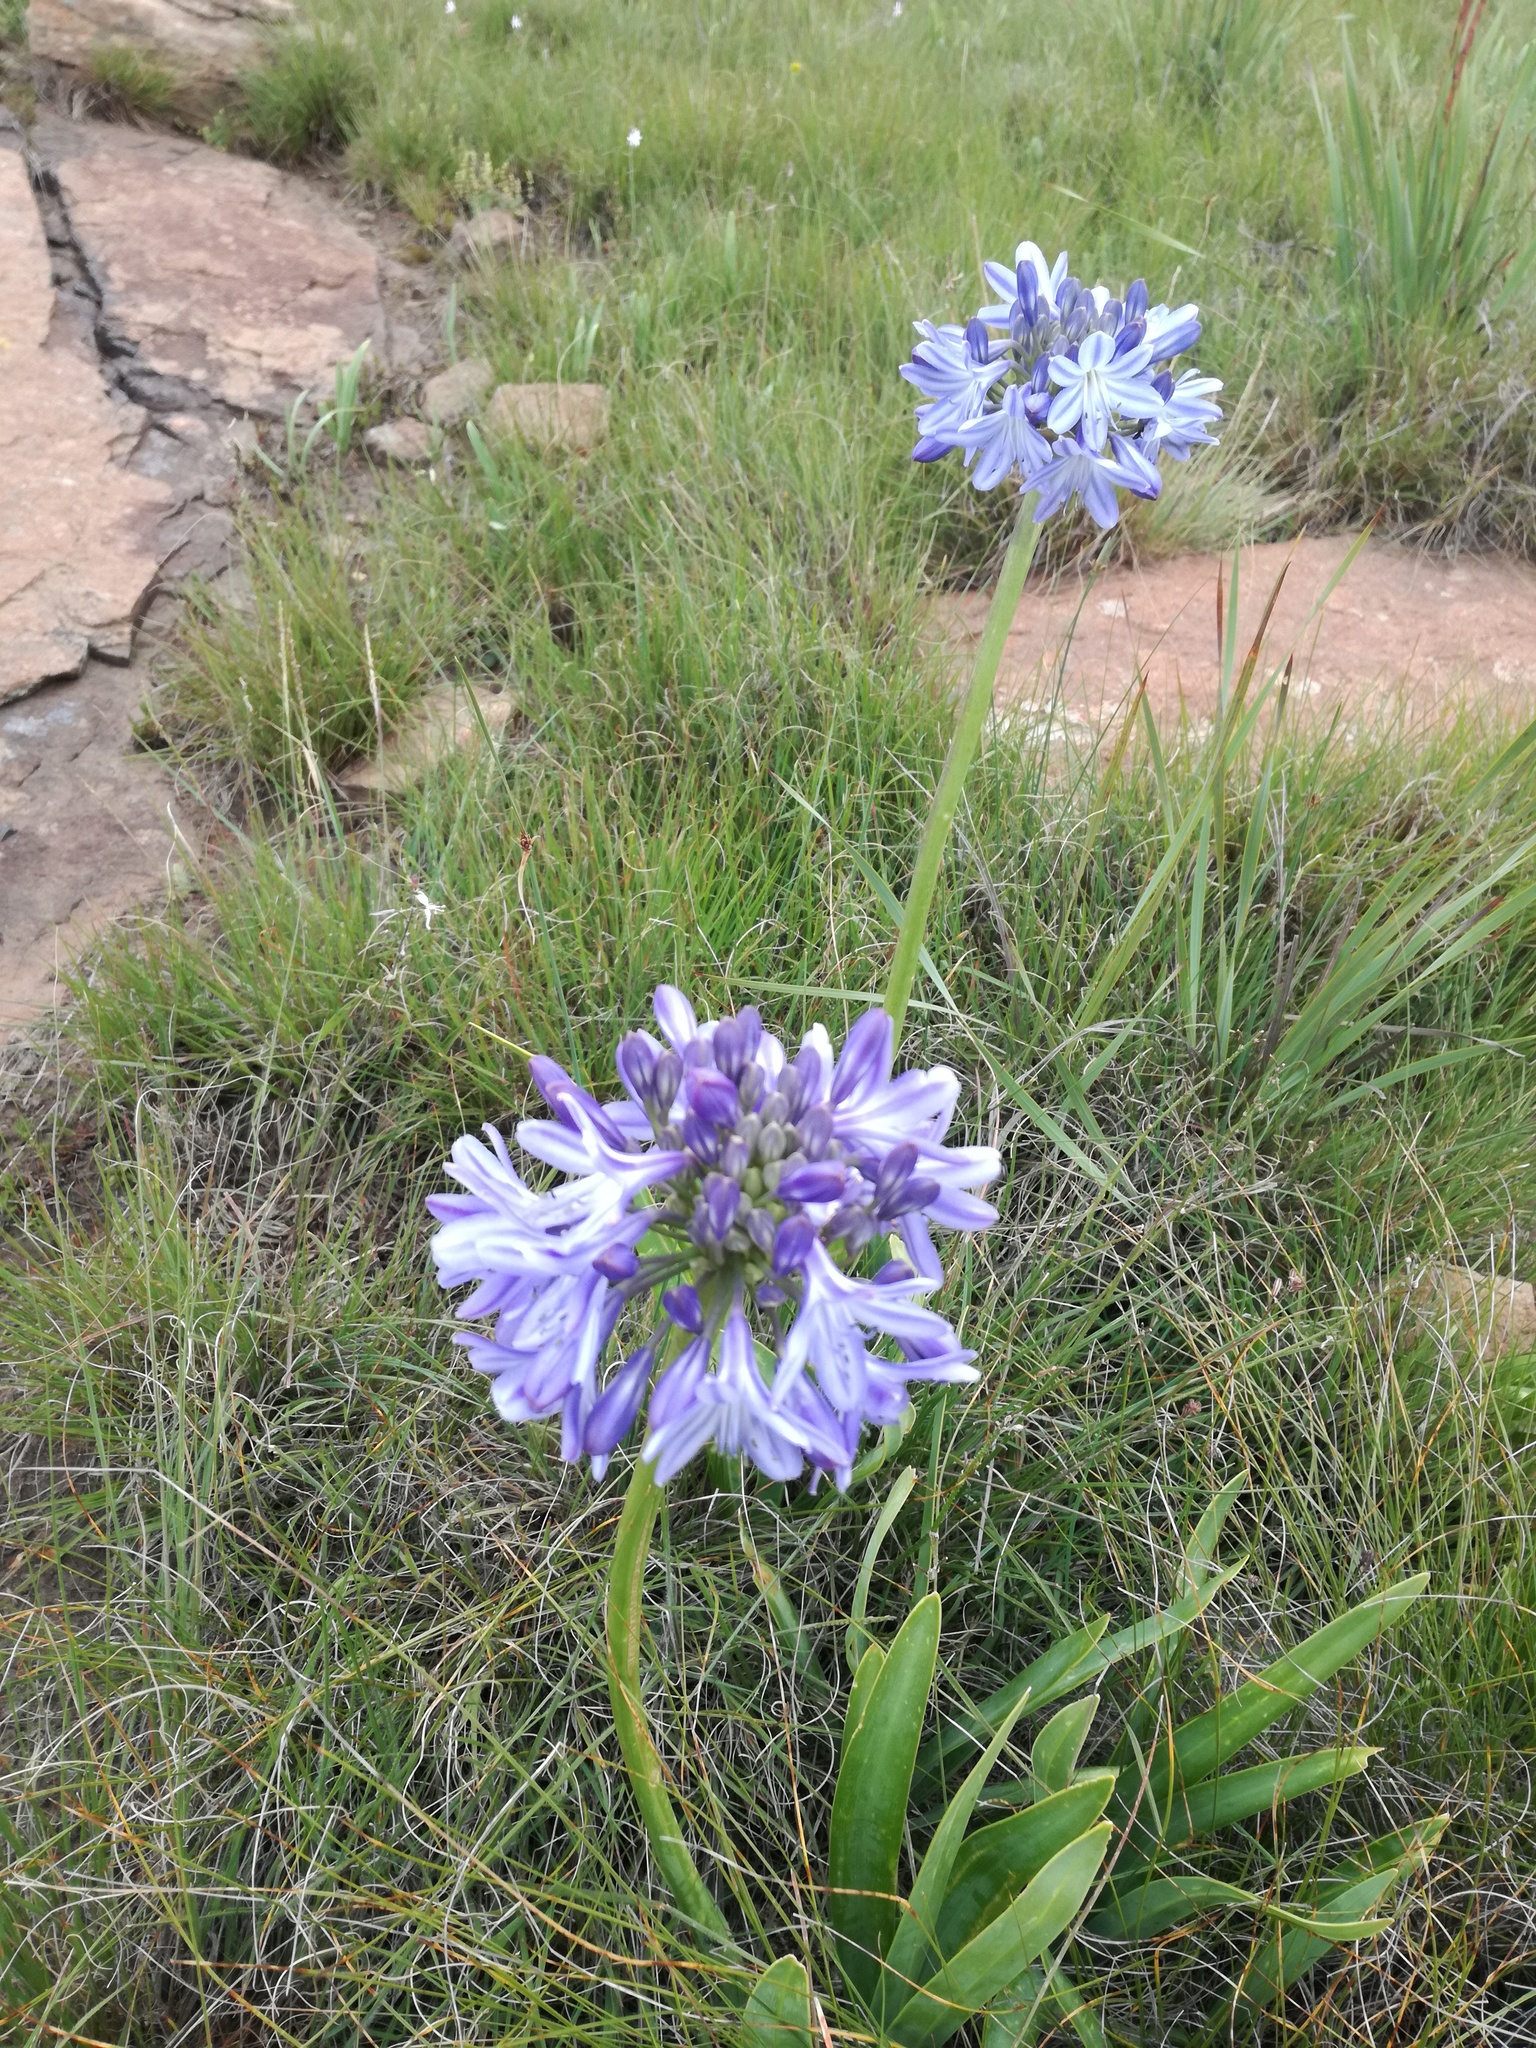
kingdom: Plantae
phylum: Tracheophyta
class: Liliopsida
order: Asparagales
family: Amaryllidaceae
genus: Agapanthus
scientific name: Agapanthus campanulatus
